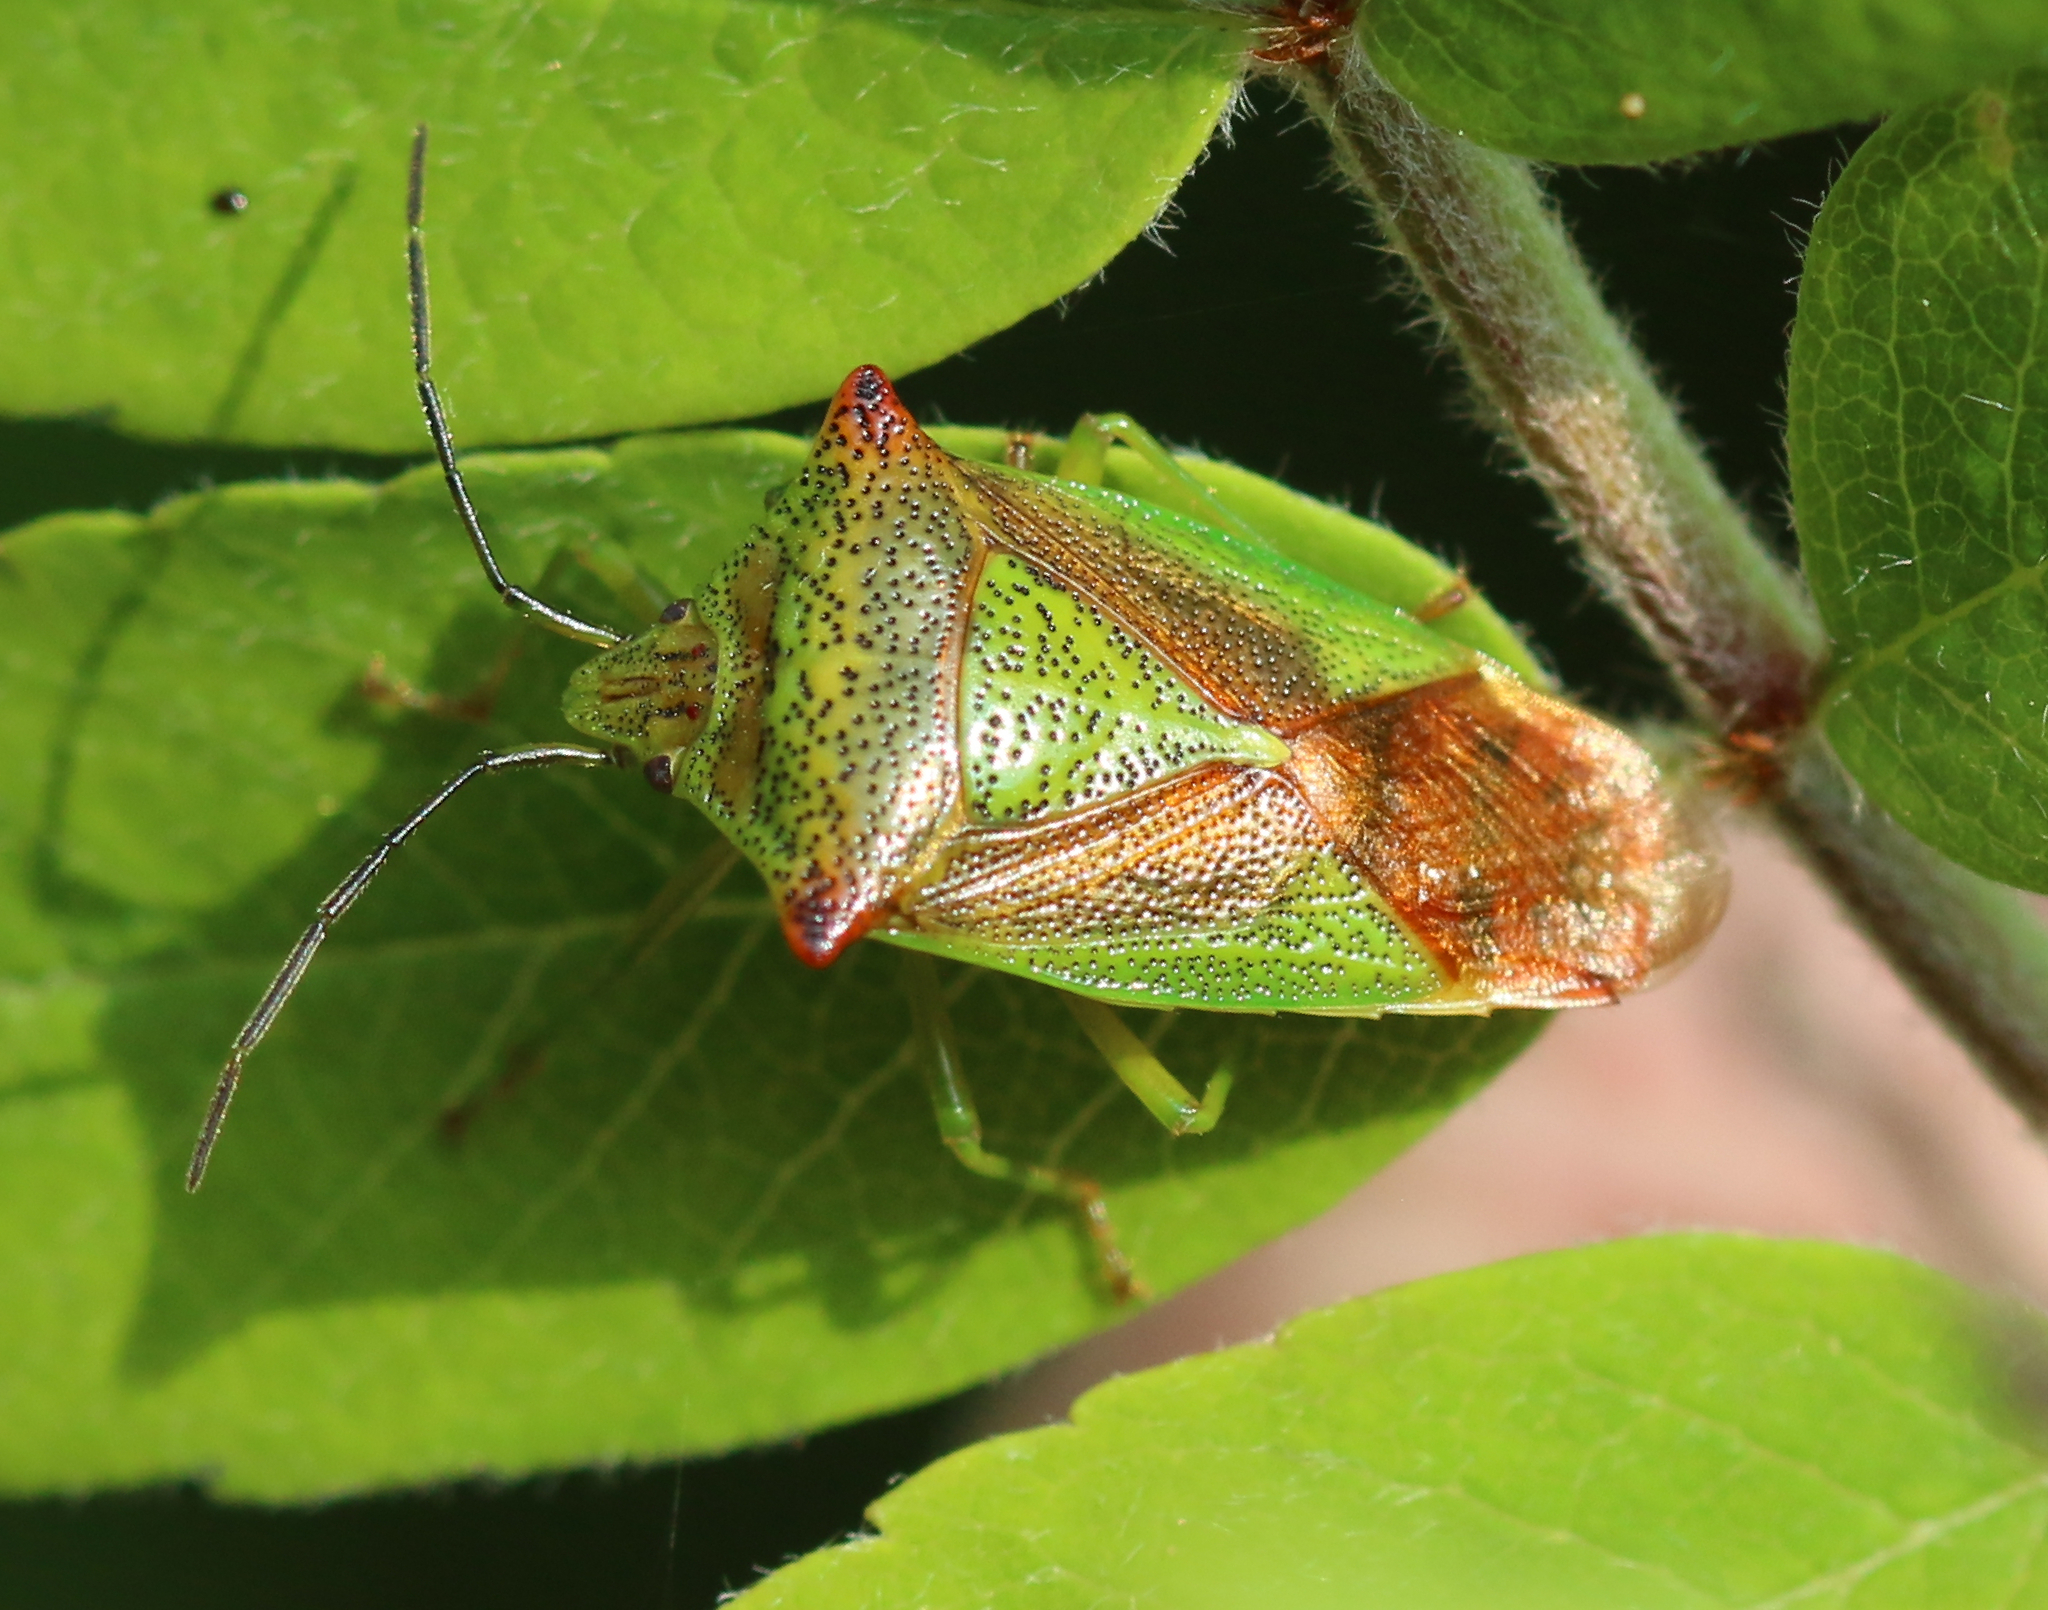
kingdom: Animalia
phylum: Arthropoda
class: Insecta
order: Hemiptera
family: Acanthosomatidae
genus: Acanthosoma
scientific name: Acanthosoma haemorrhoidale
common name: Hawthorn shieldbug
